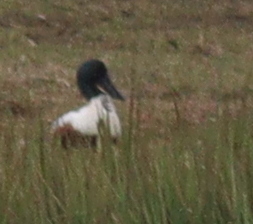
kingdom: Animalia
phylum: Chordata
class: Aves
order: Anseriformes
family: Anatidae
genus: Spatula
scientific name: Spatula clypeata
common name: Northern shoveler
